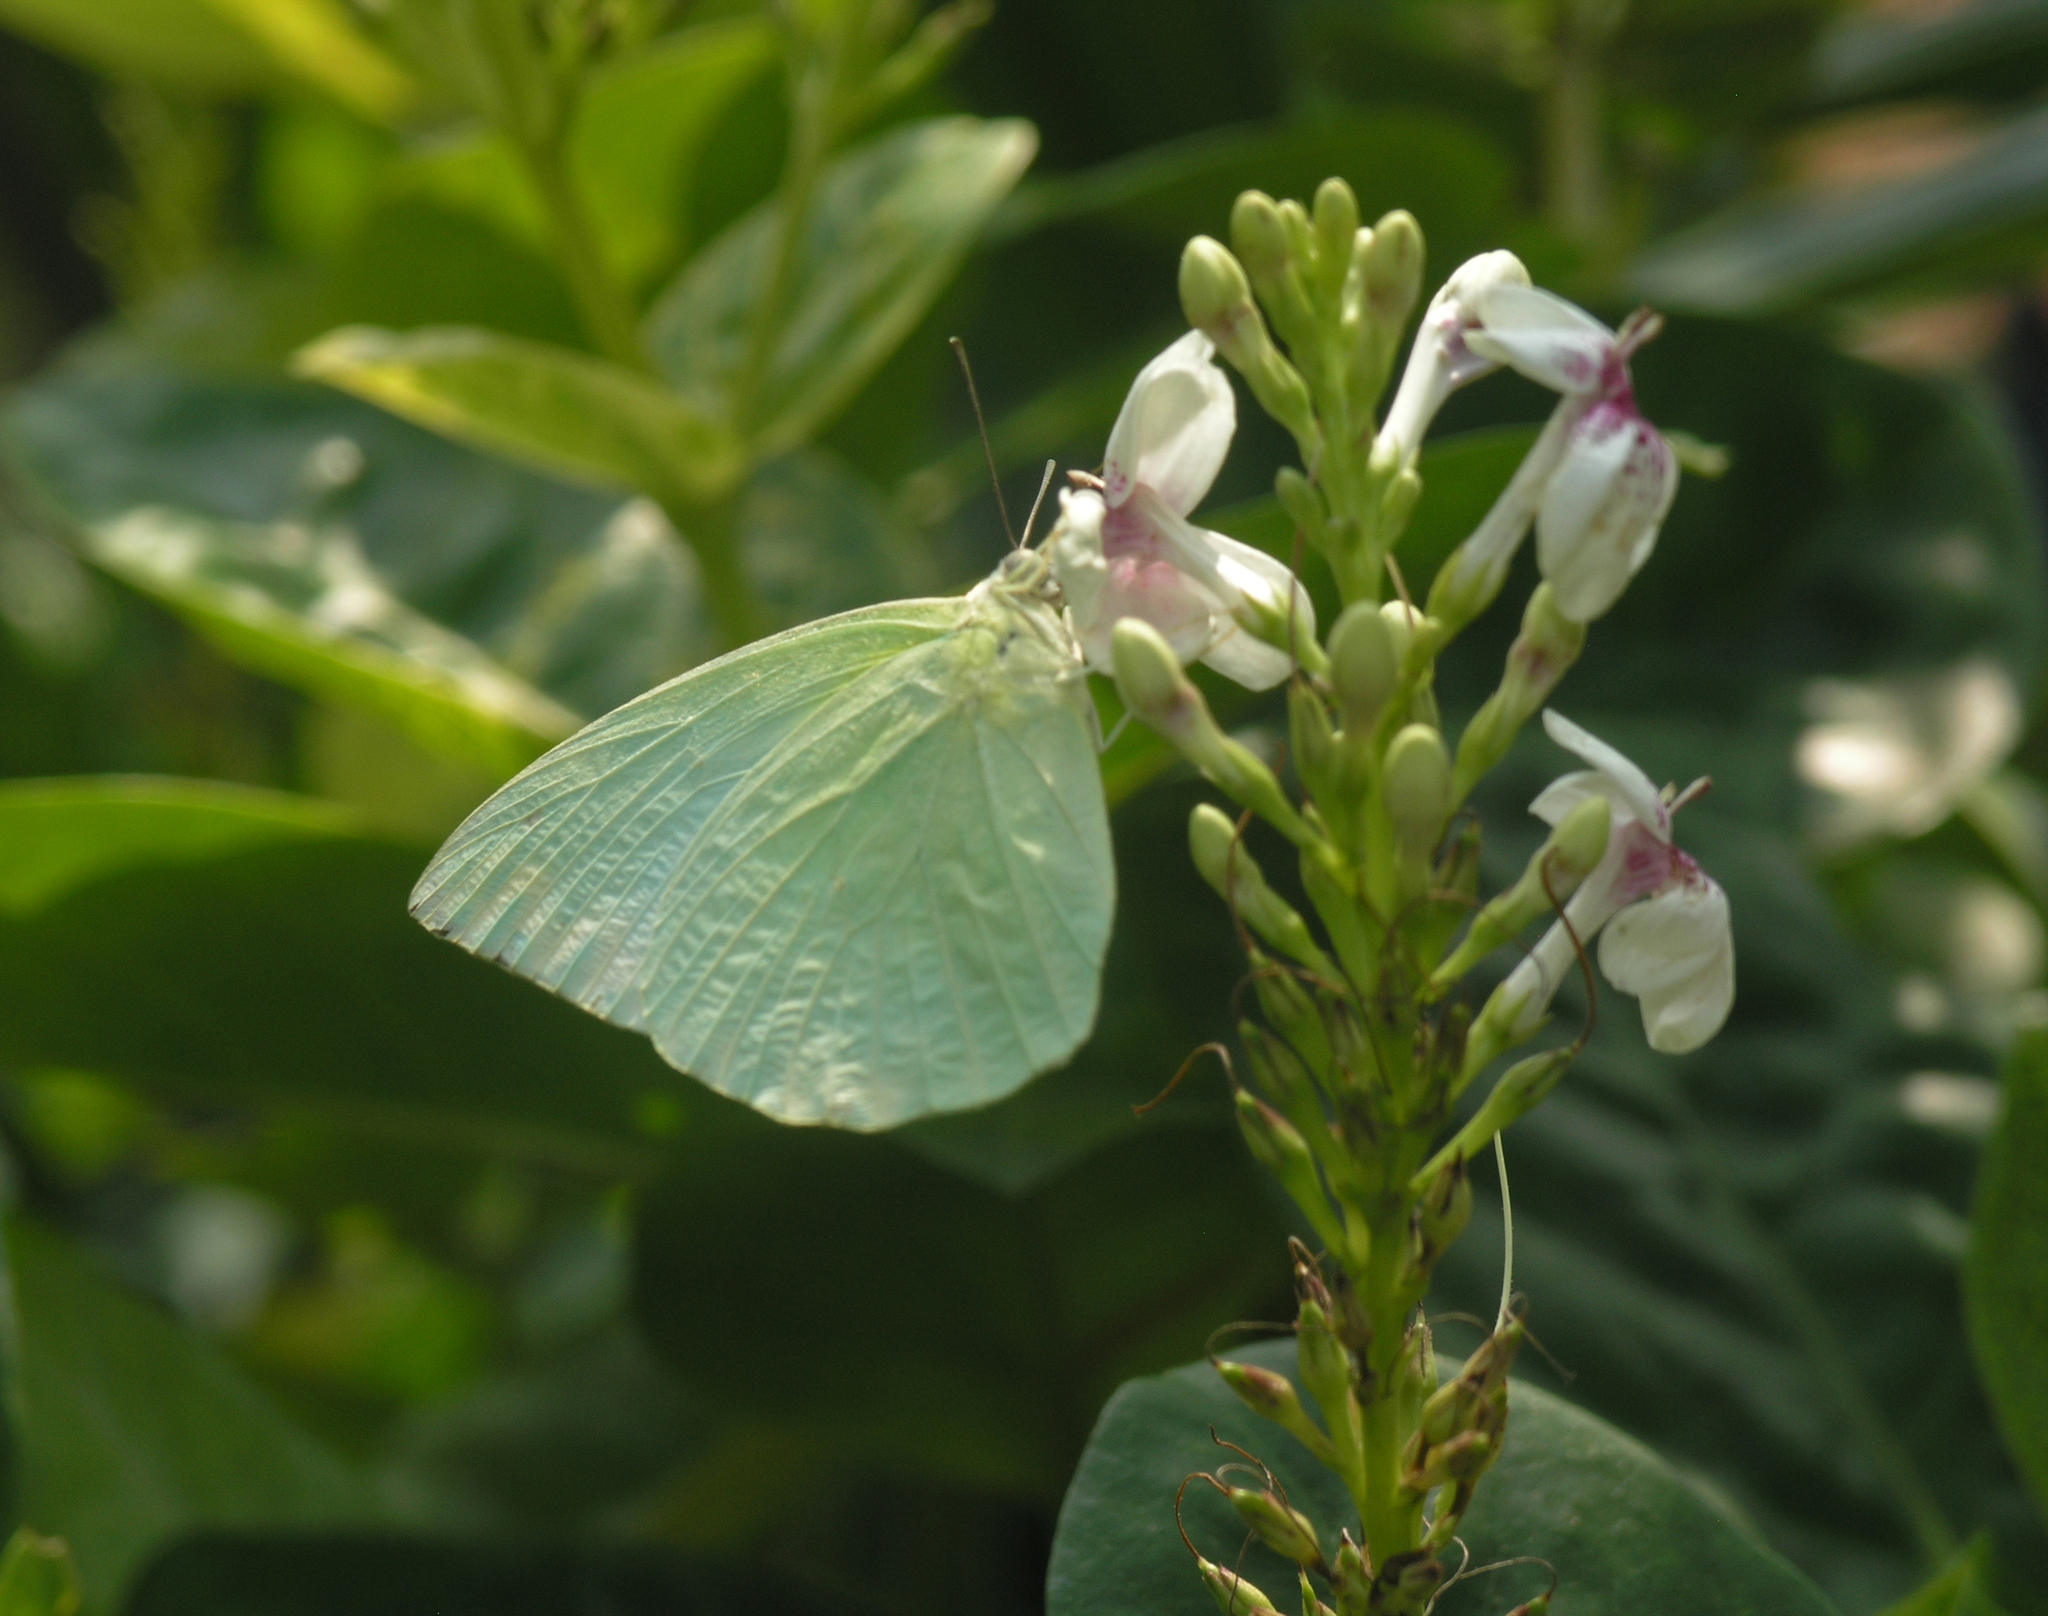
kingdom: Animalia
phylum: Arthropoda
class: Insecta
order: Lepidoptera
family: Pieridae
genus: Catopsilia
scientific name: Catopsilia pomona
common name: Common emigrant
